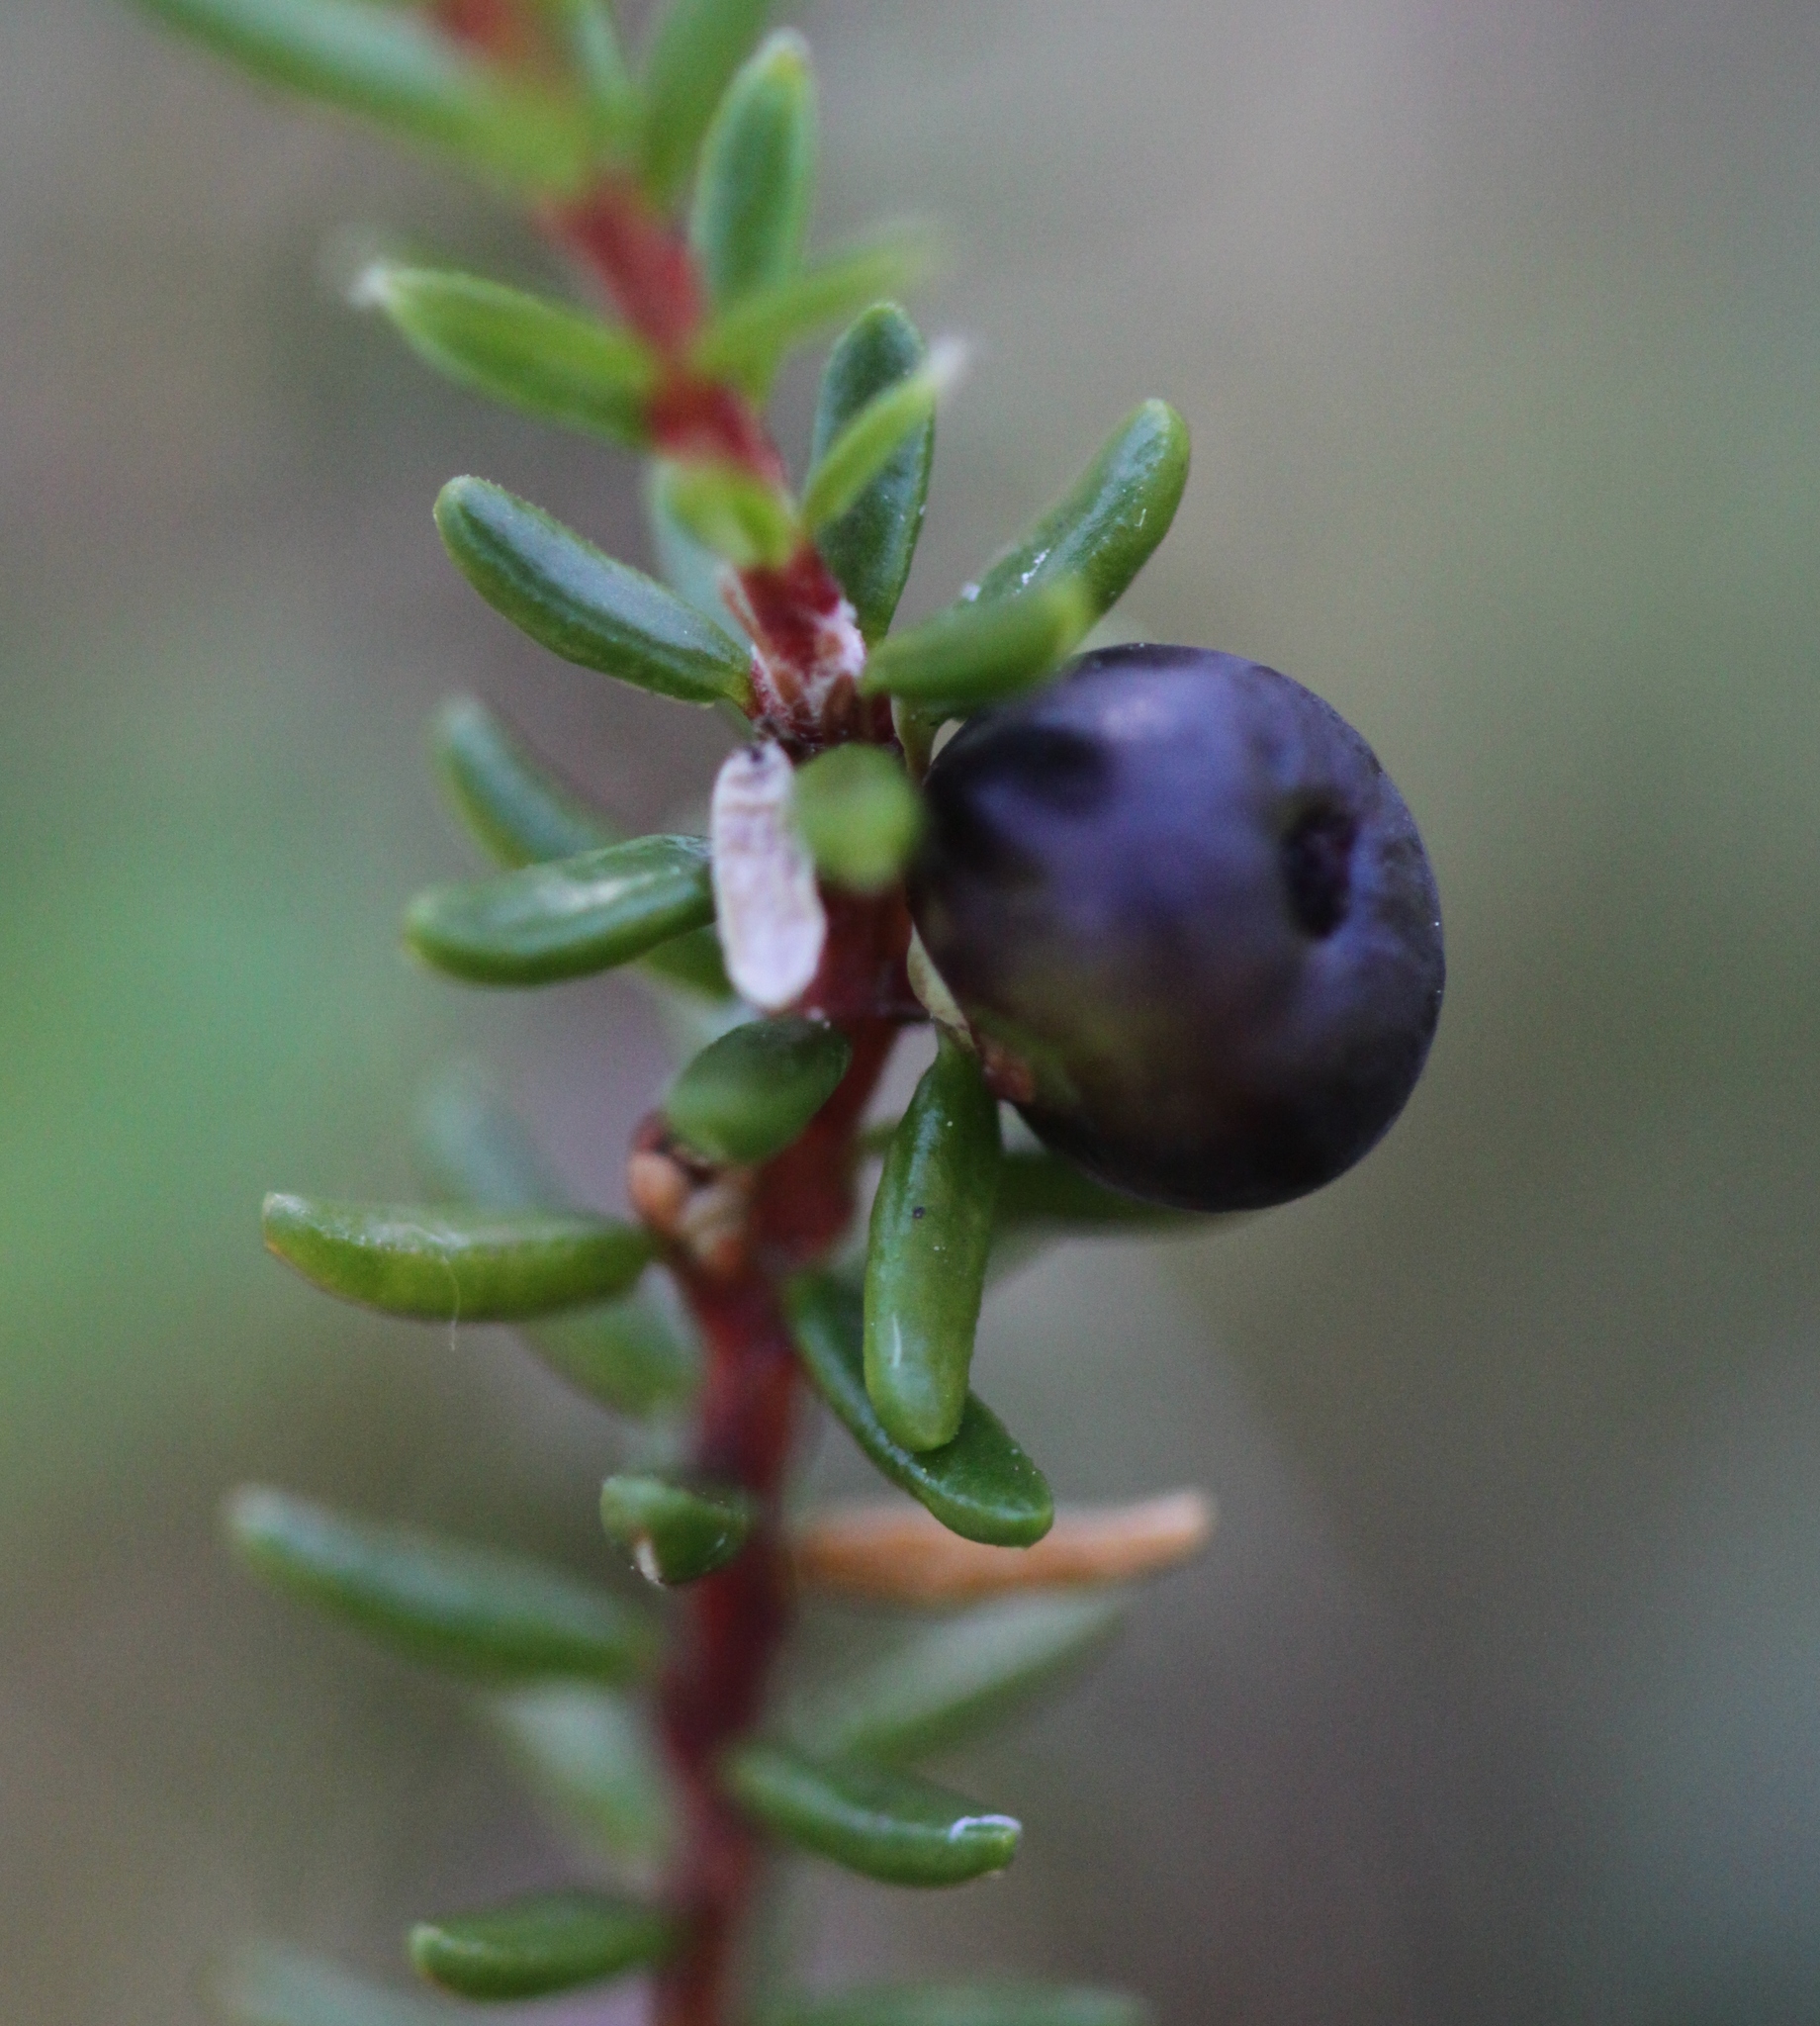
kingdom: Plantae
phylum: Tracheophyta
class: Magnoliopsida
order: Ericales
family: Ericaceae
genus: Empetrum
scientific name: Empetrum nigrum
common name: Black crowberry
